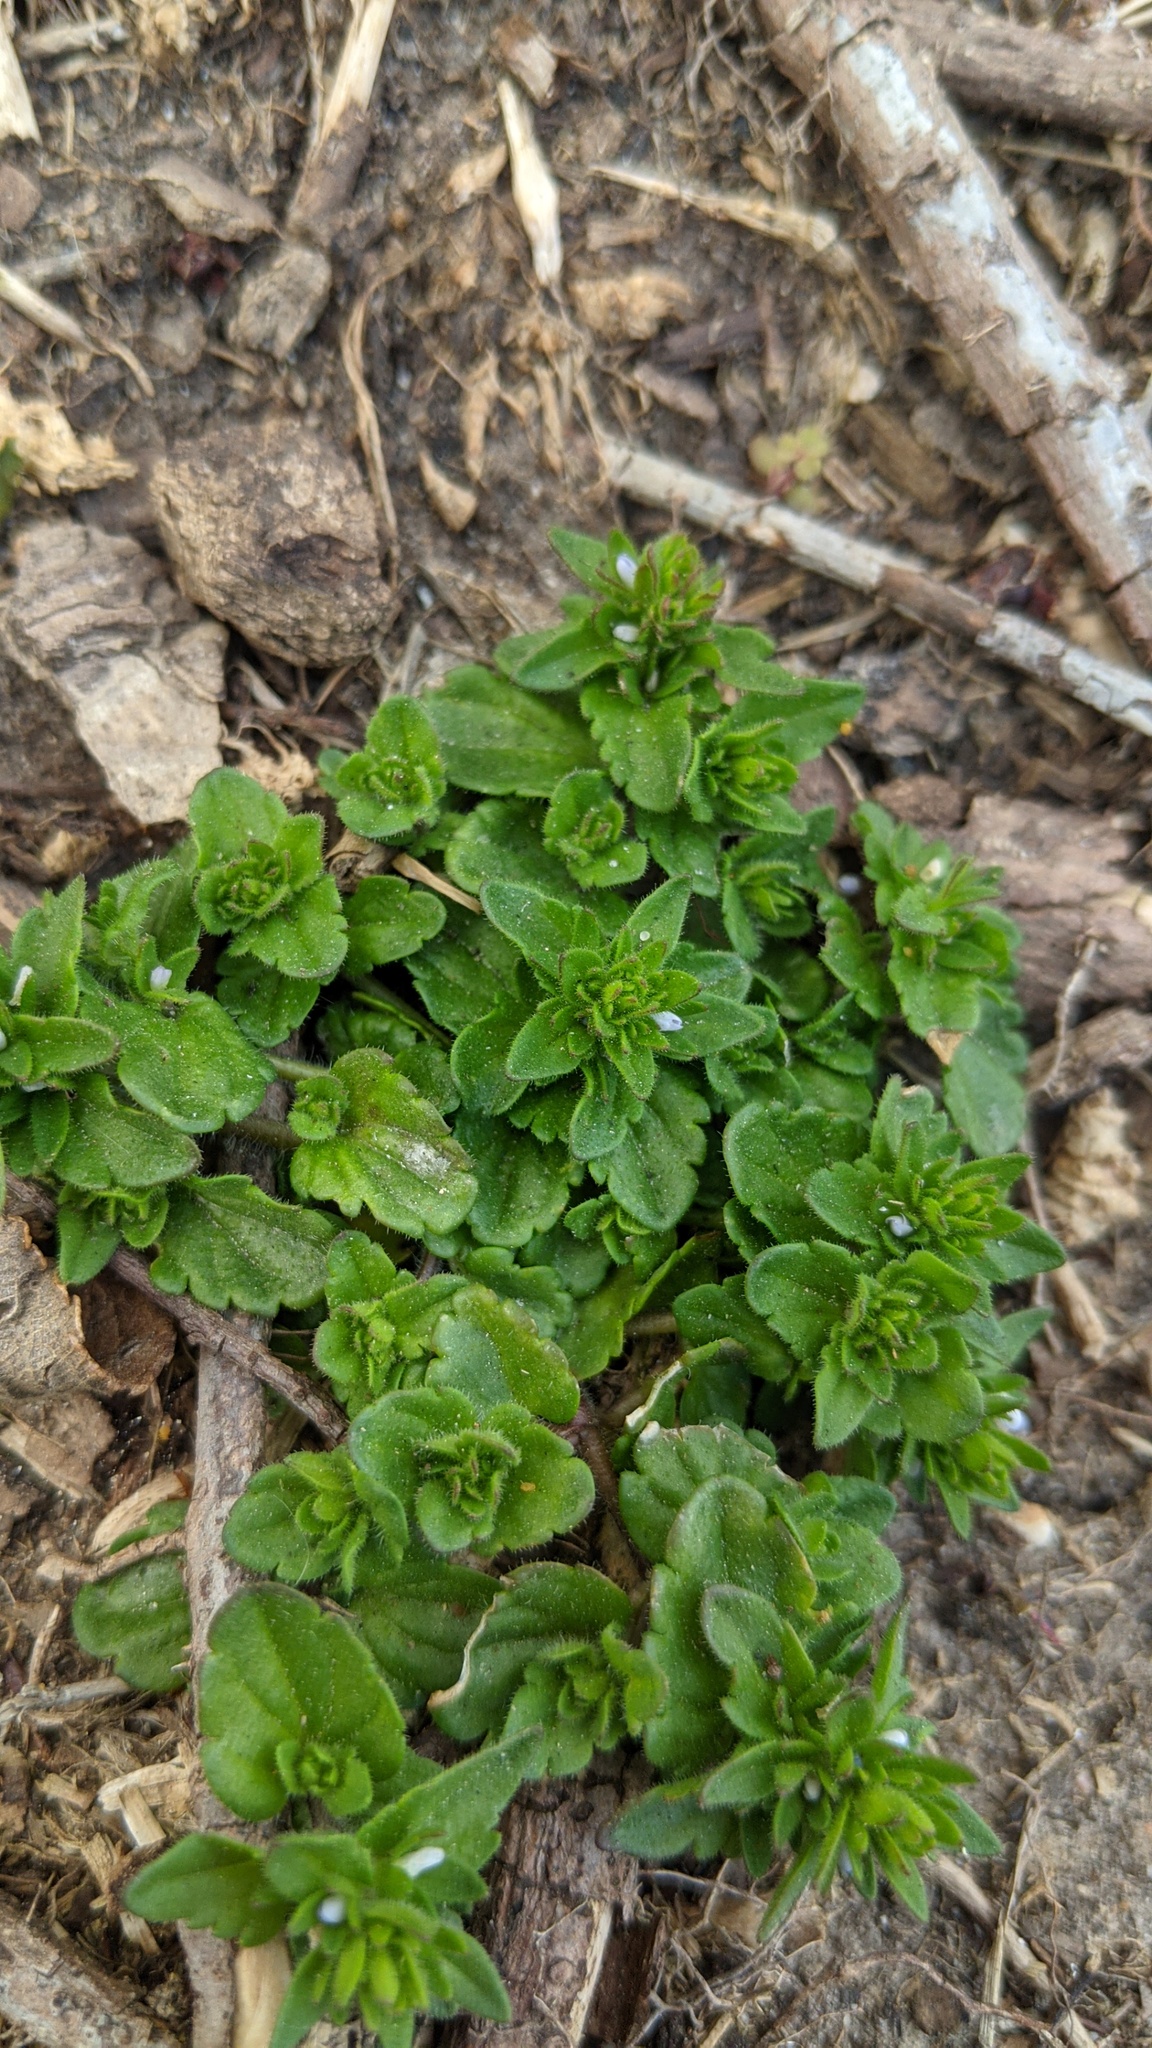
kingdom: Plantae
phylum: Tracheophyta
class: Magnoliopsida
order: Lamiales
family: Plantaginaceae
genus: Veronica
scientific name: Veronica arvensis
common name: Corn speedwell
